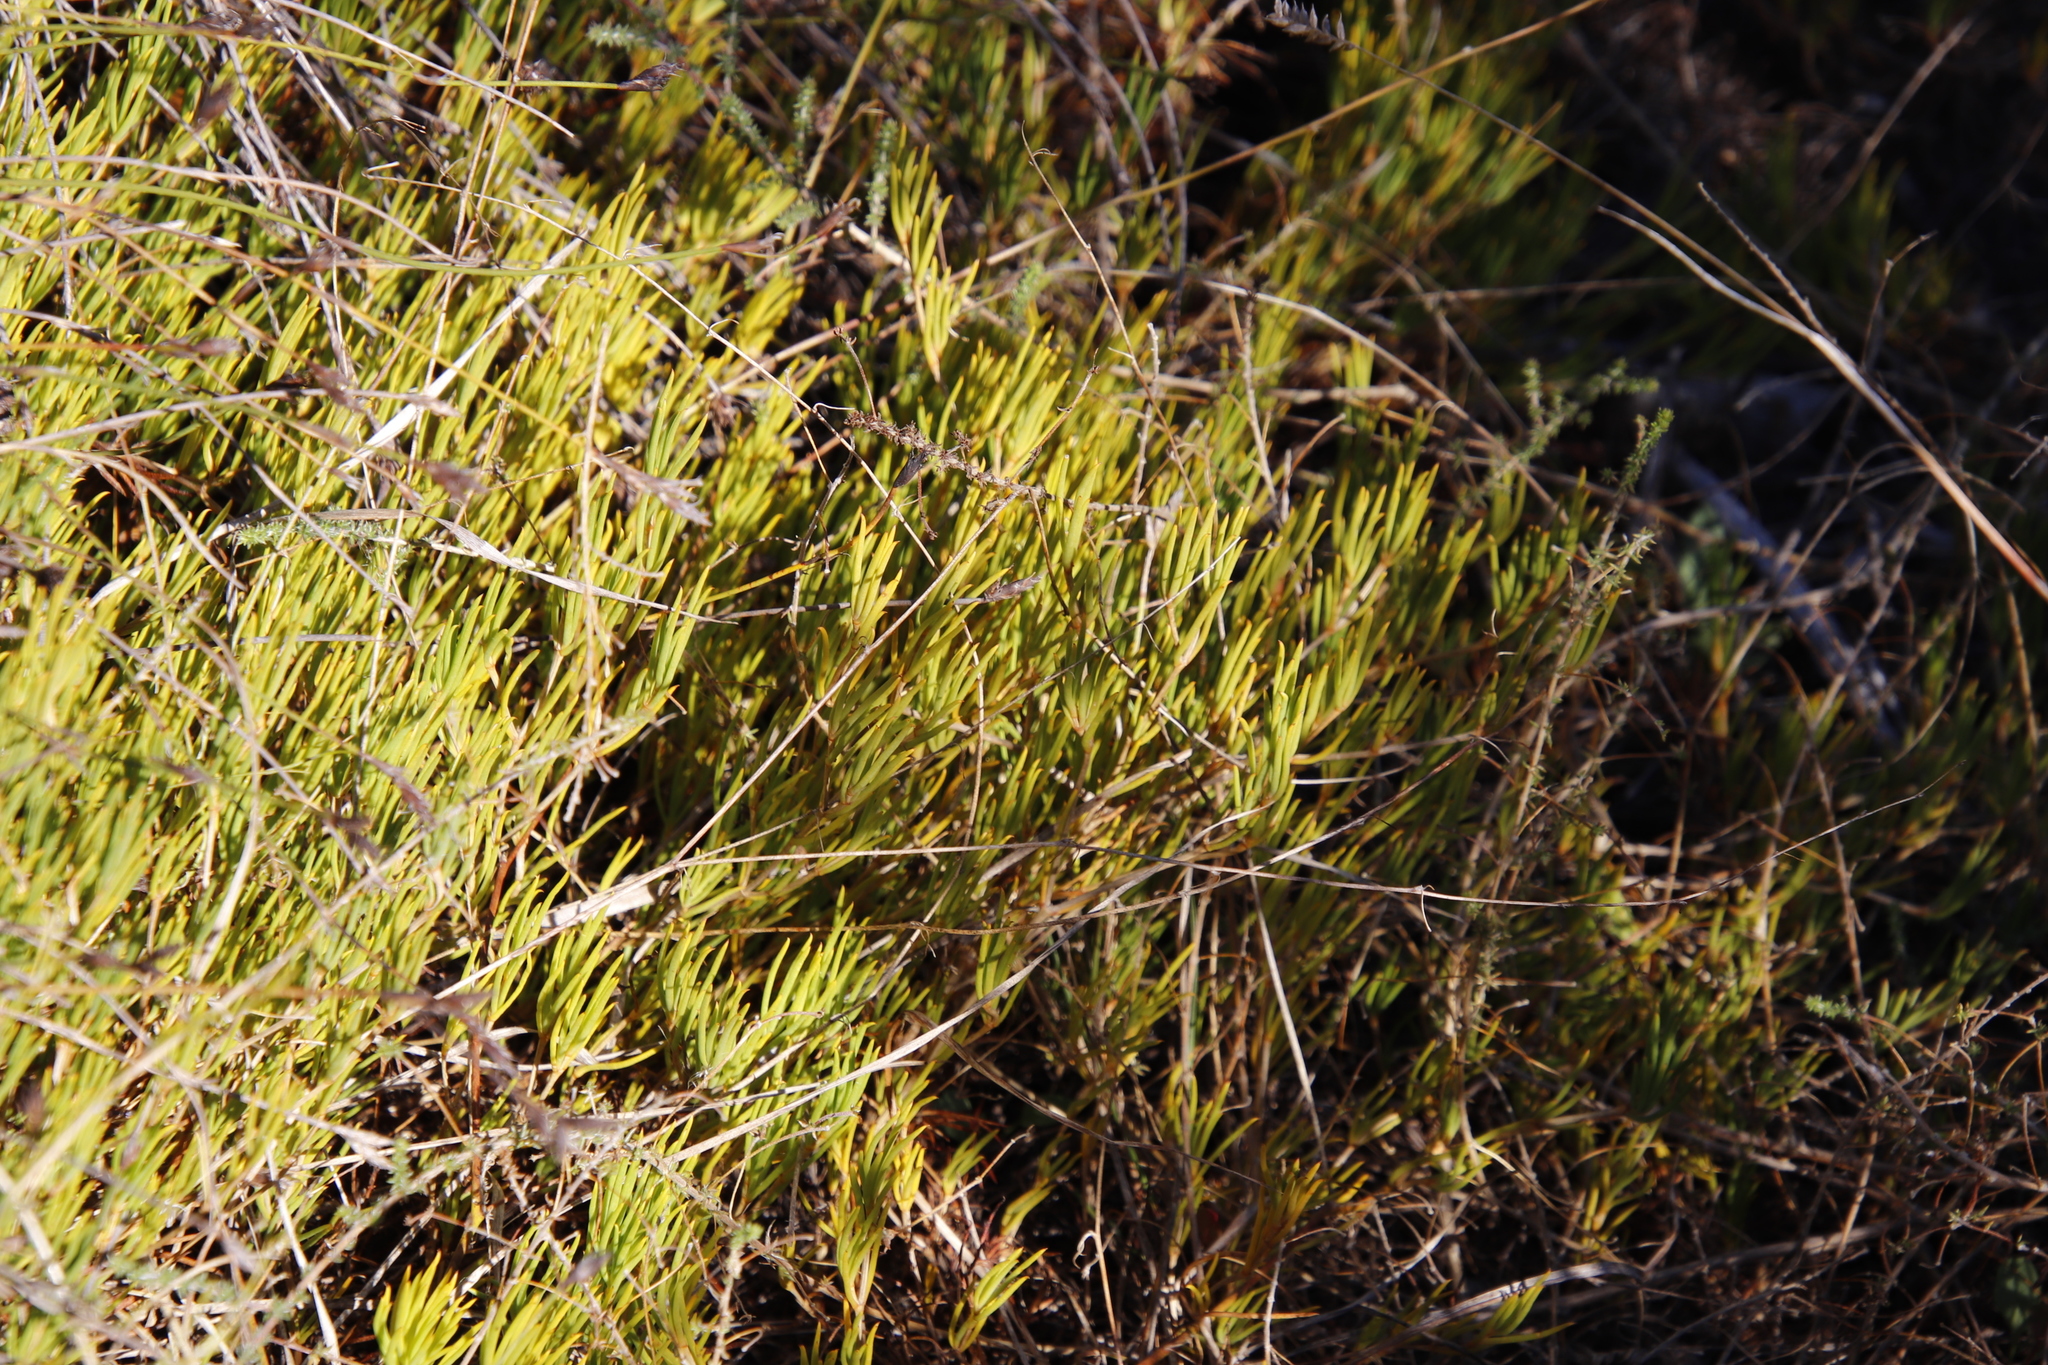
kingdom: Plantae
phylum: Tracheophyta
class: Magnoliopsida
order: Caryophyllales
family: Aizoaceae
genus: Acrosanthes
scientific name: Acrosanthes teretifolia
